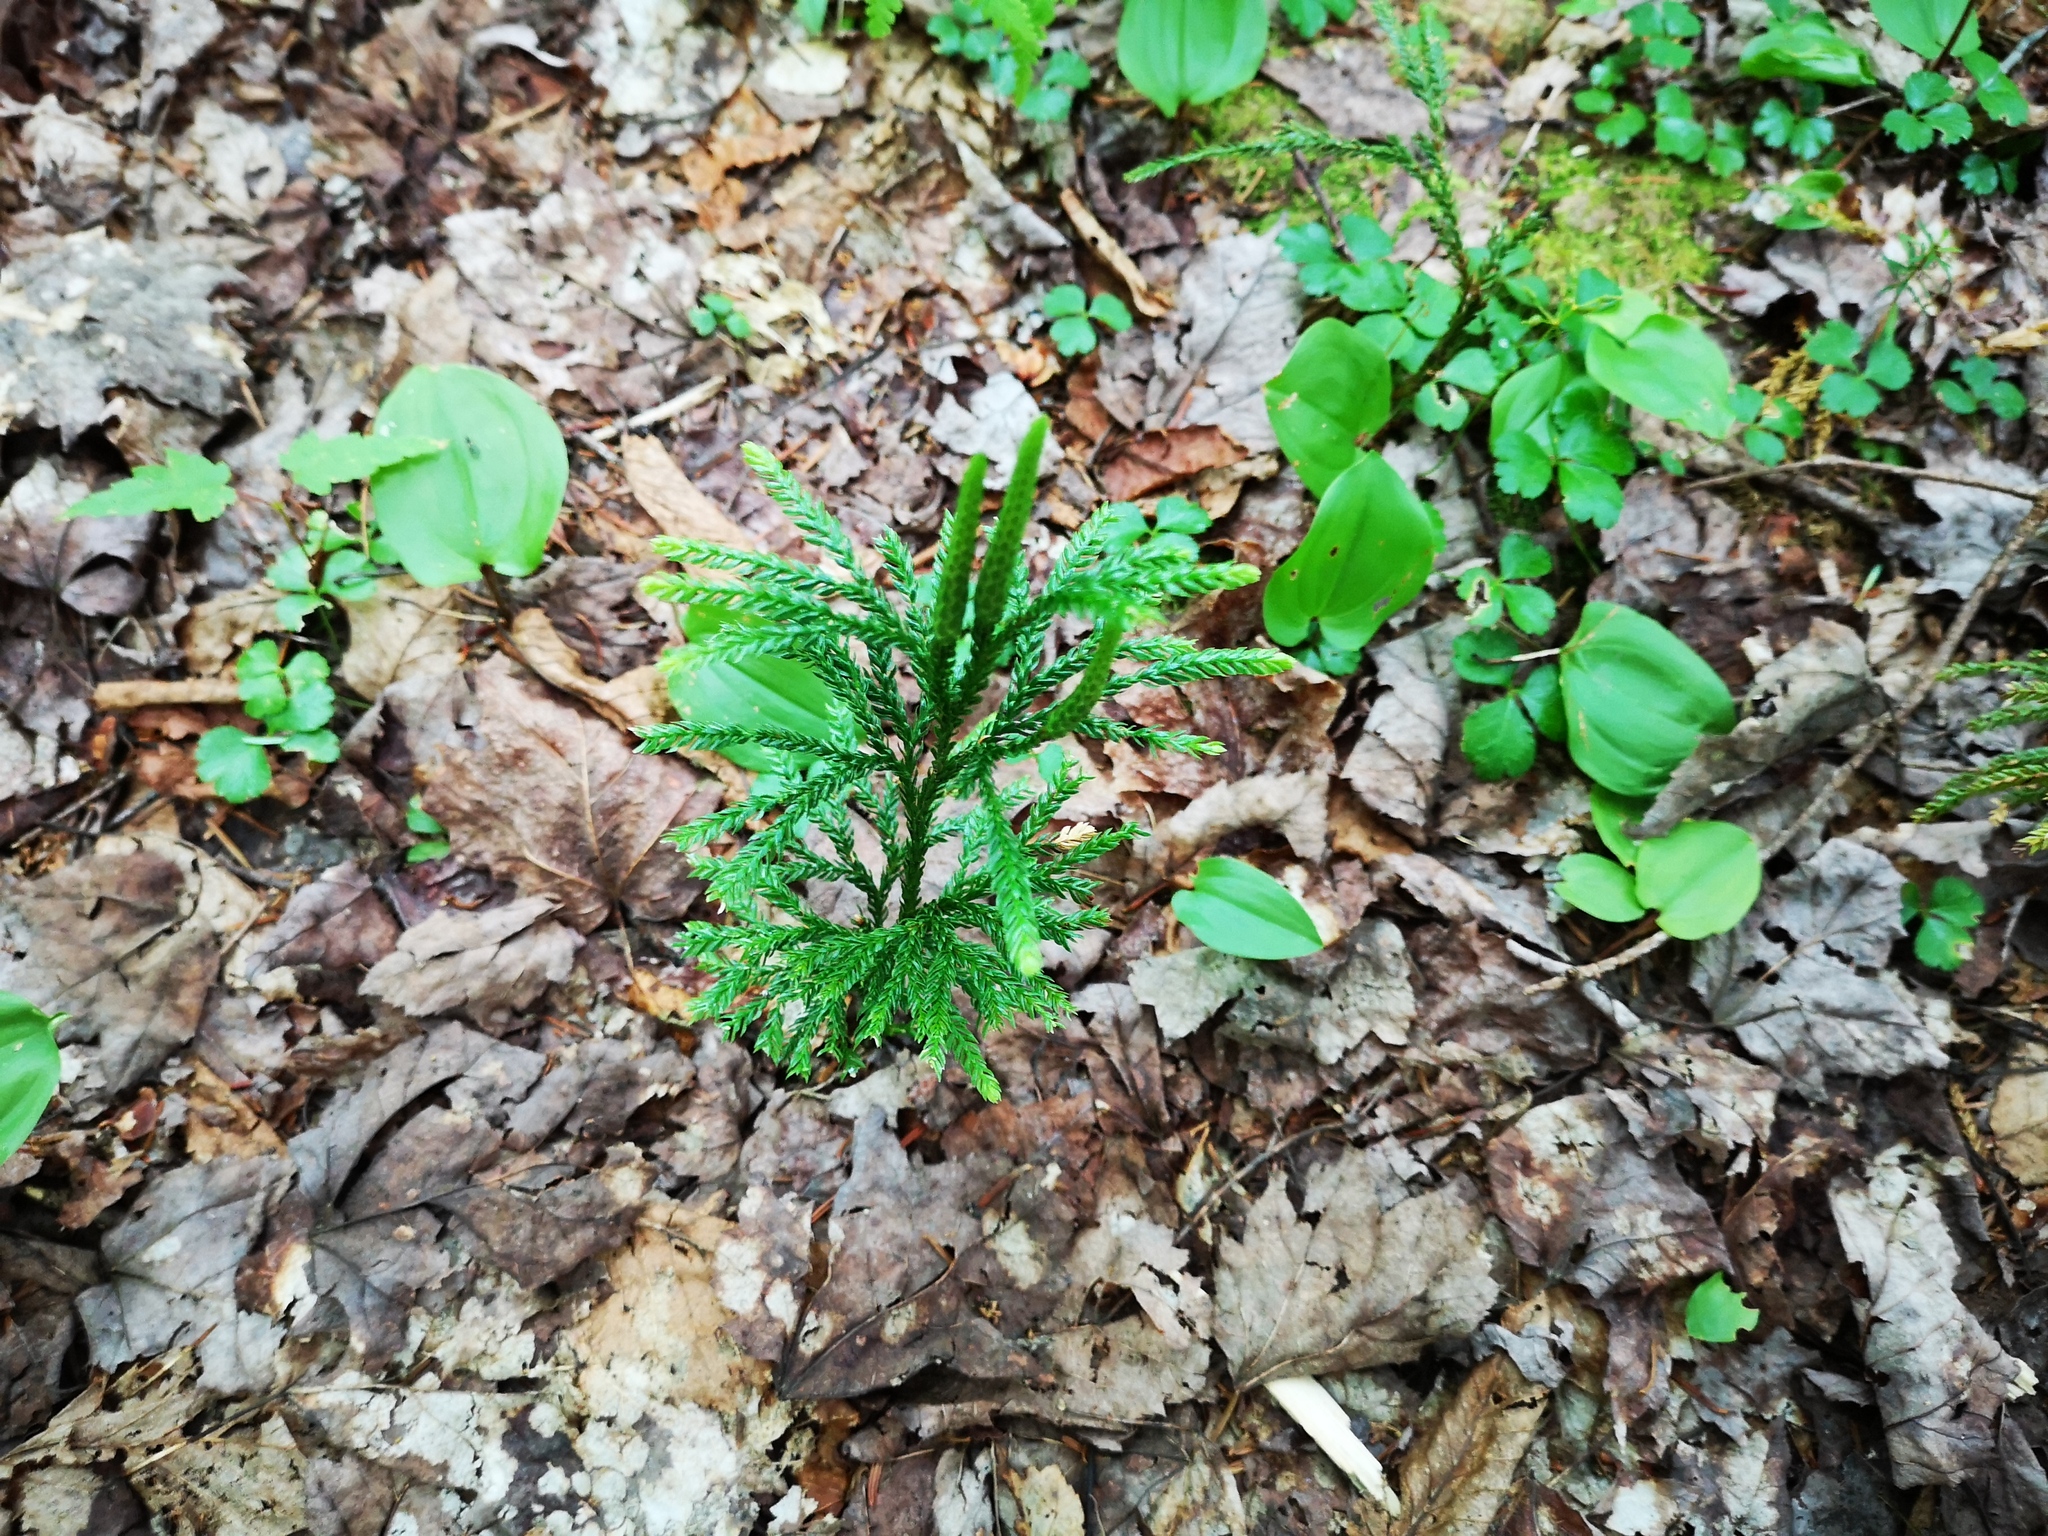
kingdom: Plantae
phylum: Tracheophyta
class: Lycopodiopsida
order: Lycopodiales
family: Lycopodiaceae
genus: Dendrolycopodium
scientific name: Dendrolycopodium obscurum
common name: Common ground-pine
